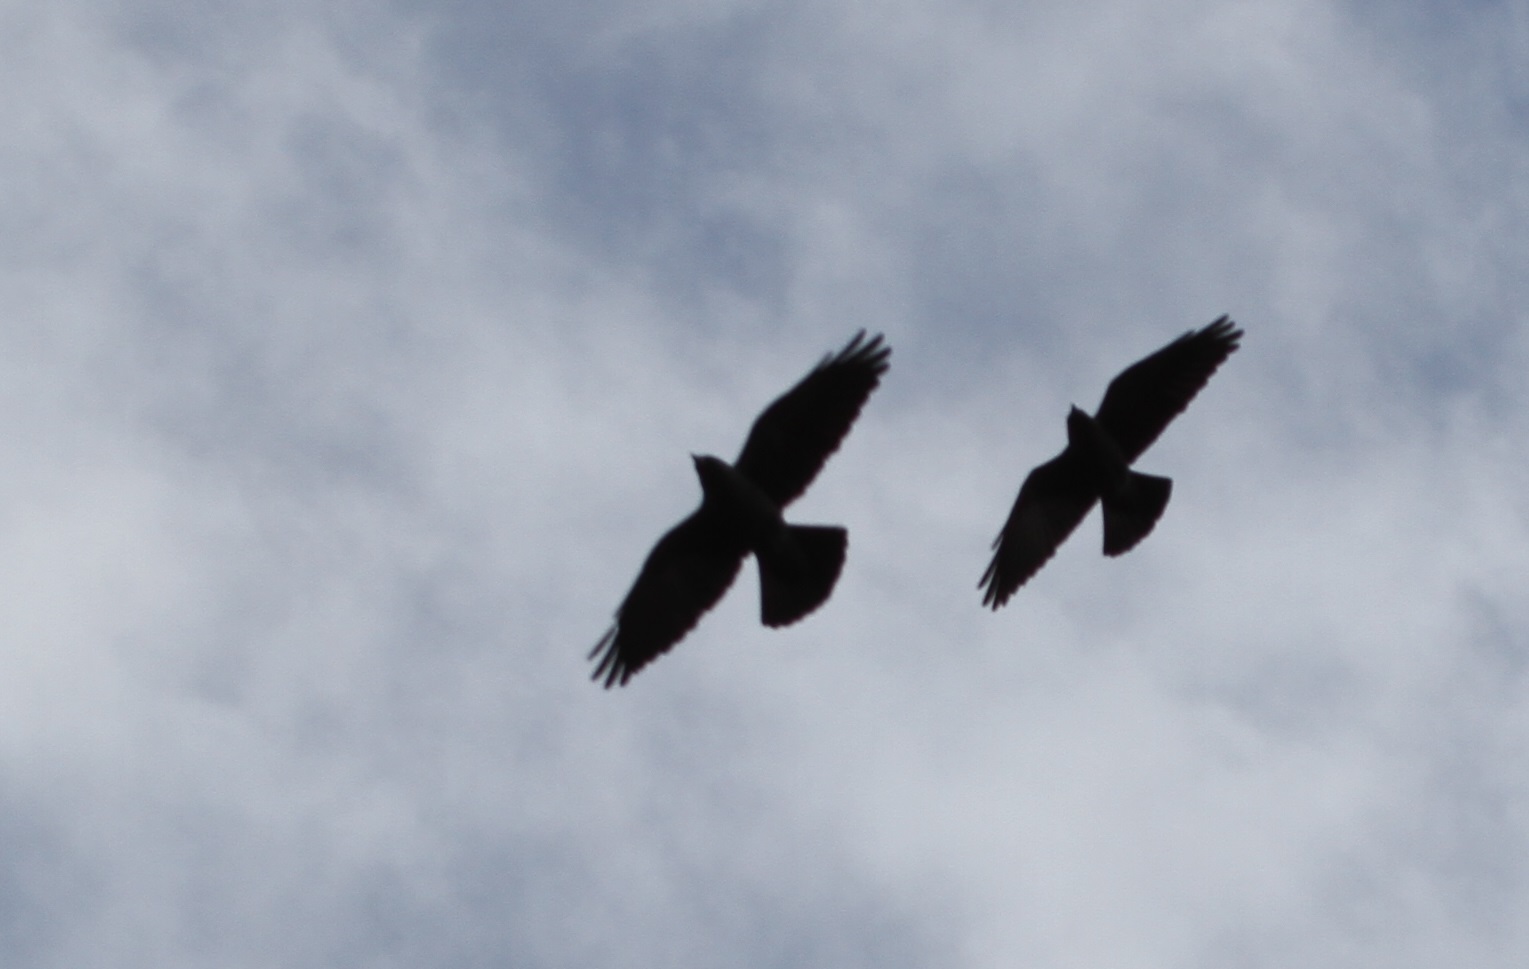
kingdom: Animalia
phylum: Chordata
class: Aves
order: Passeriformes
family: Corvidae
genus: Coloeus
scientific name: Coloeus monedula
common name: Western jackdaw
